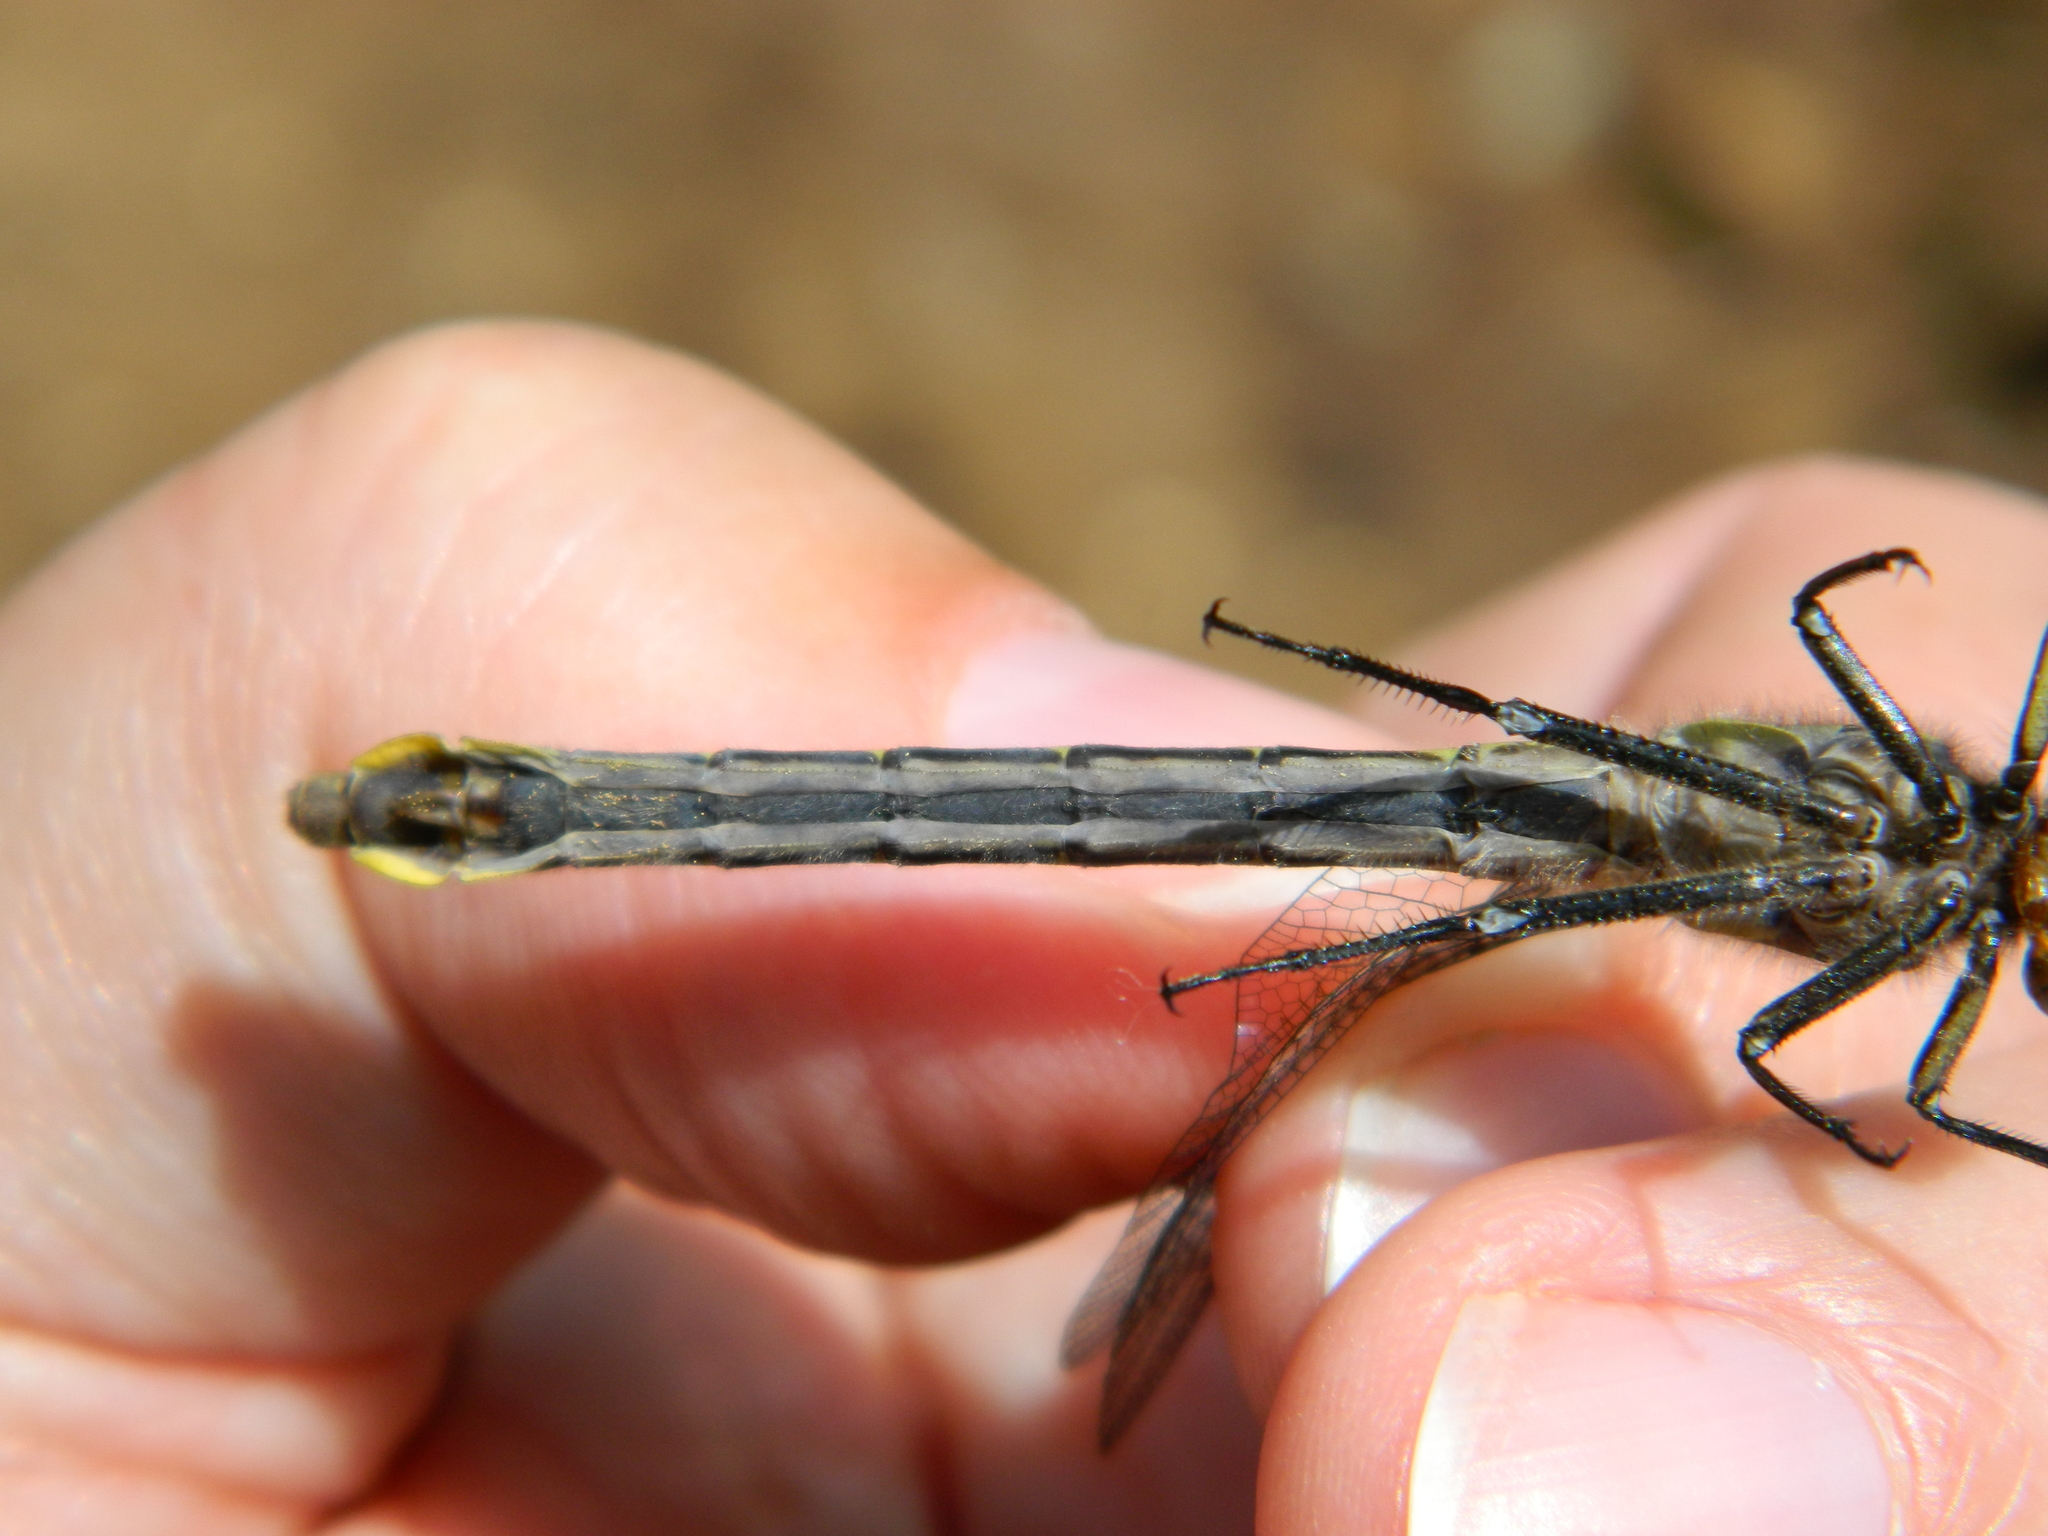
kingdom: Animalia
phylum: Arthropoda
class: Insecta
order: Odonata
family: Gomphidae
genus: Phanogomphus
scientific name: Phanogomphus borealis
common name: Beaverpond clubtail
